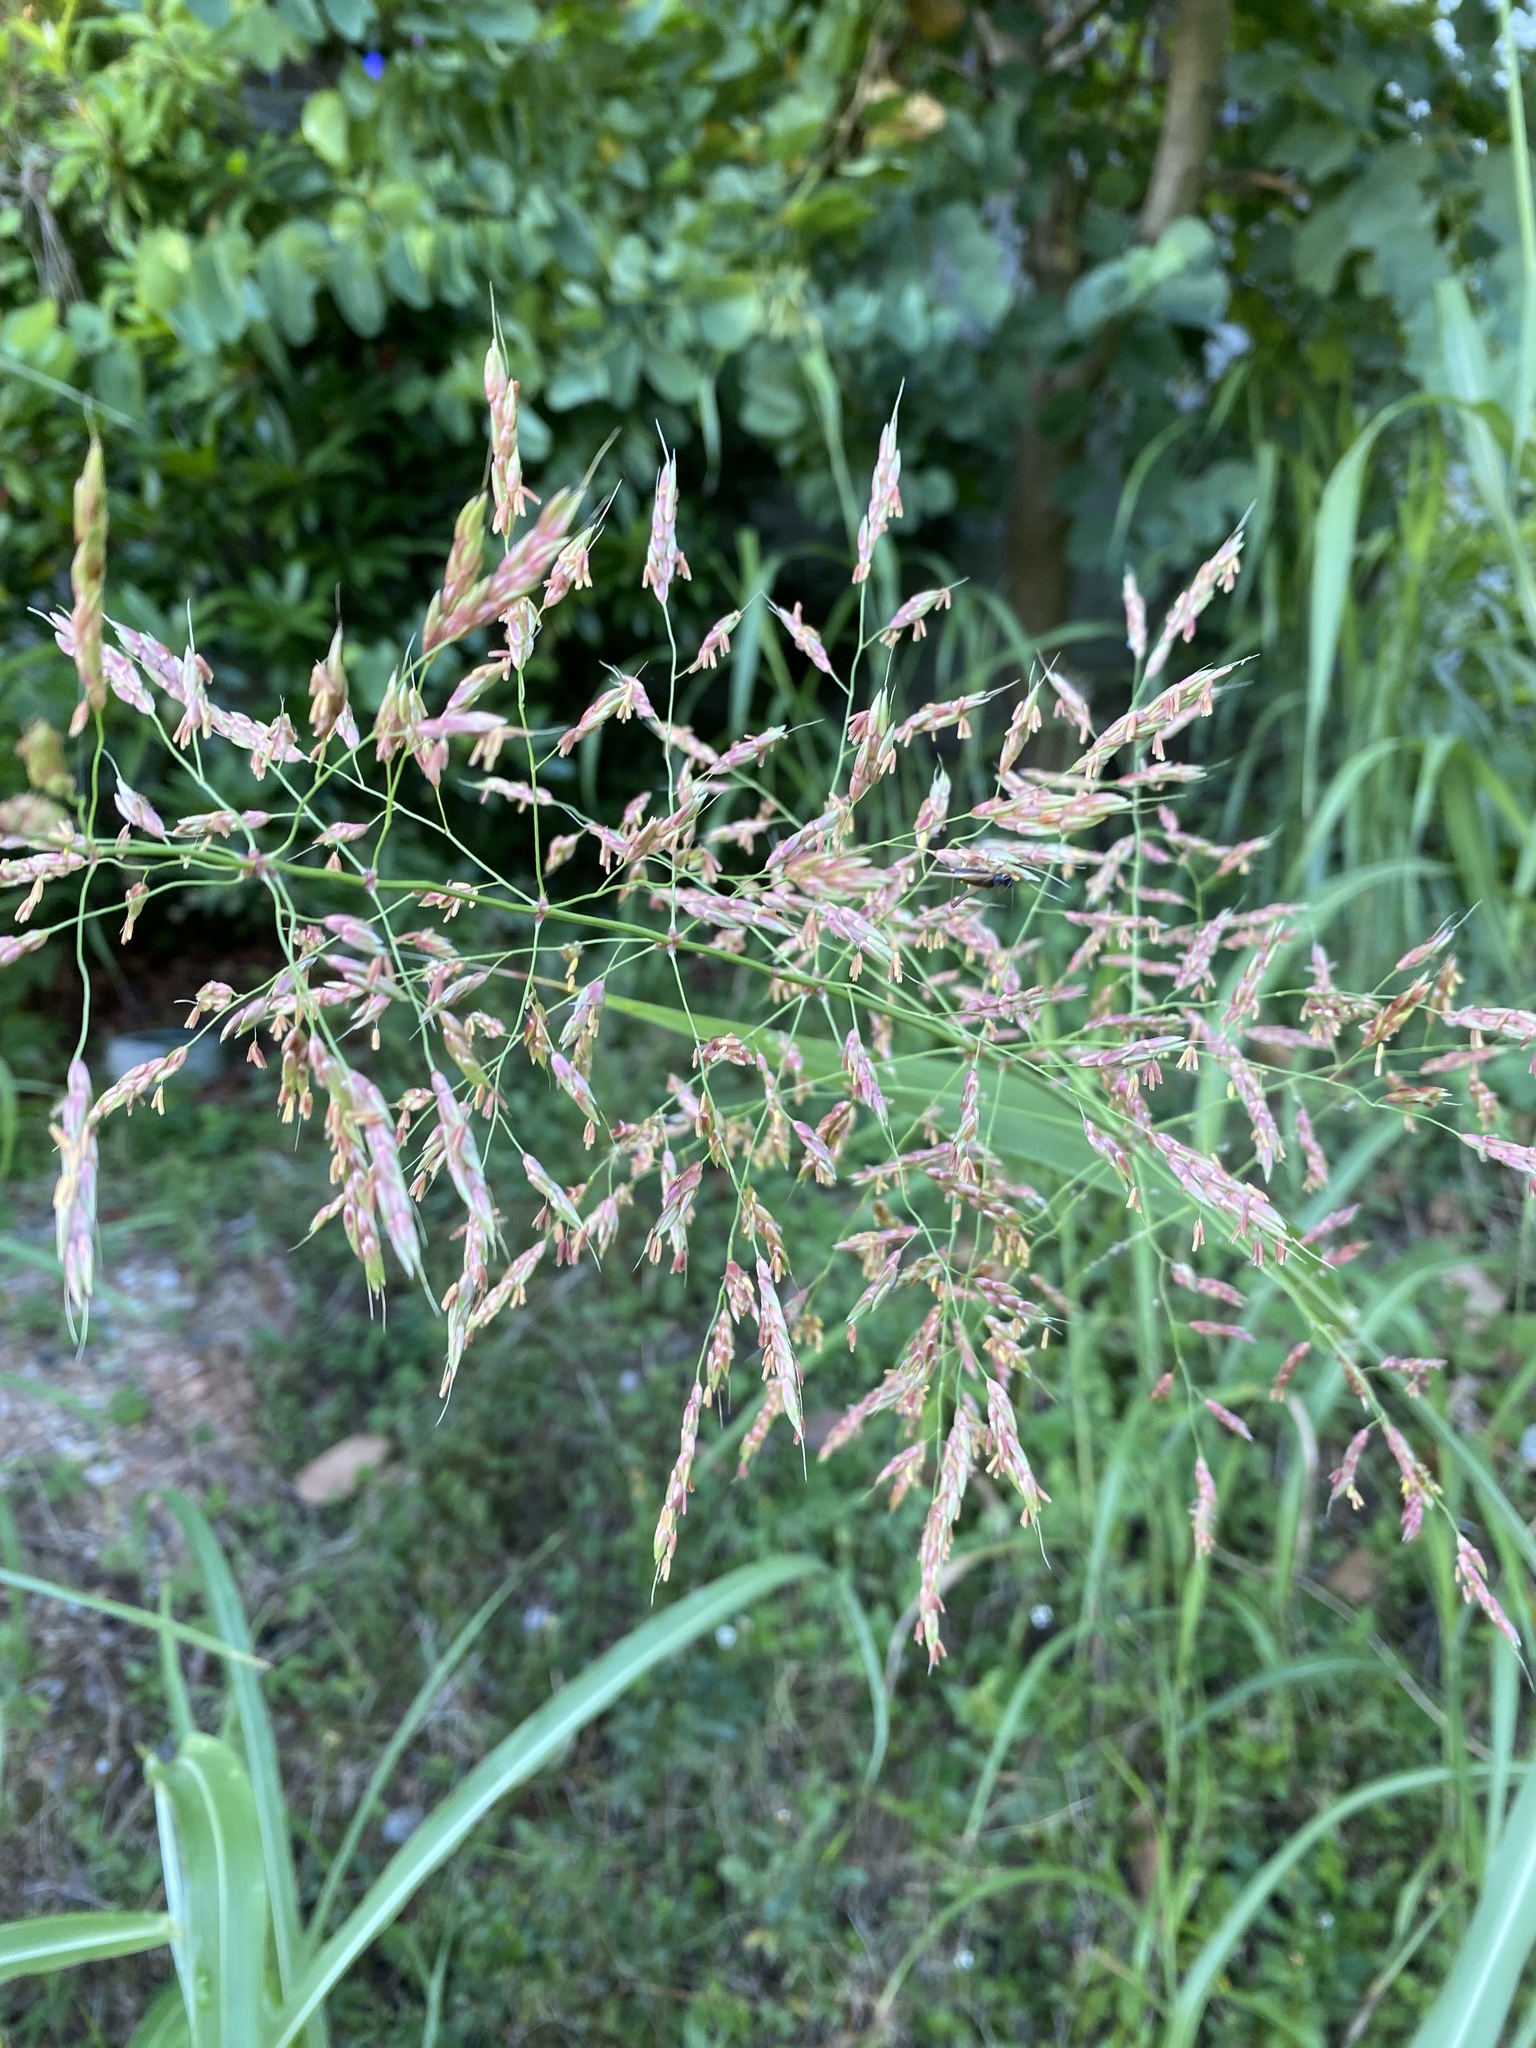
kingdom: Plantae
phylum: Tracheophyta
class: Liliopsida
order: Poales
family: Poaceae
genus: Sorghum
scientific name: Sorghum halepense
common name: Johnson-grass
